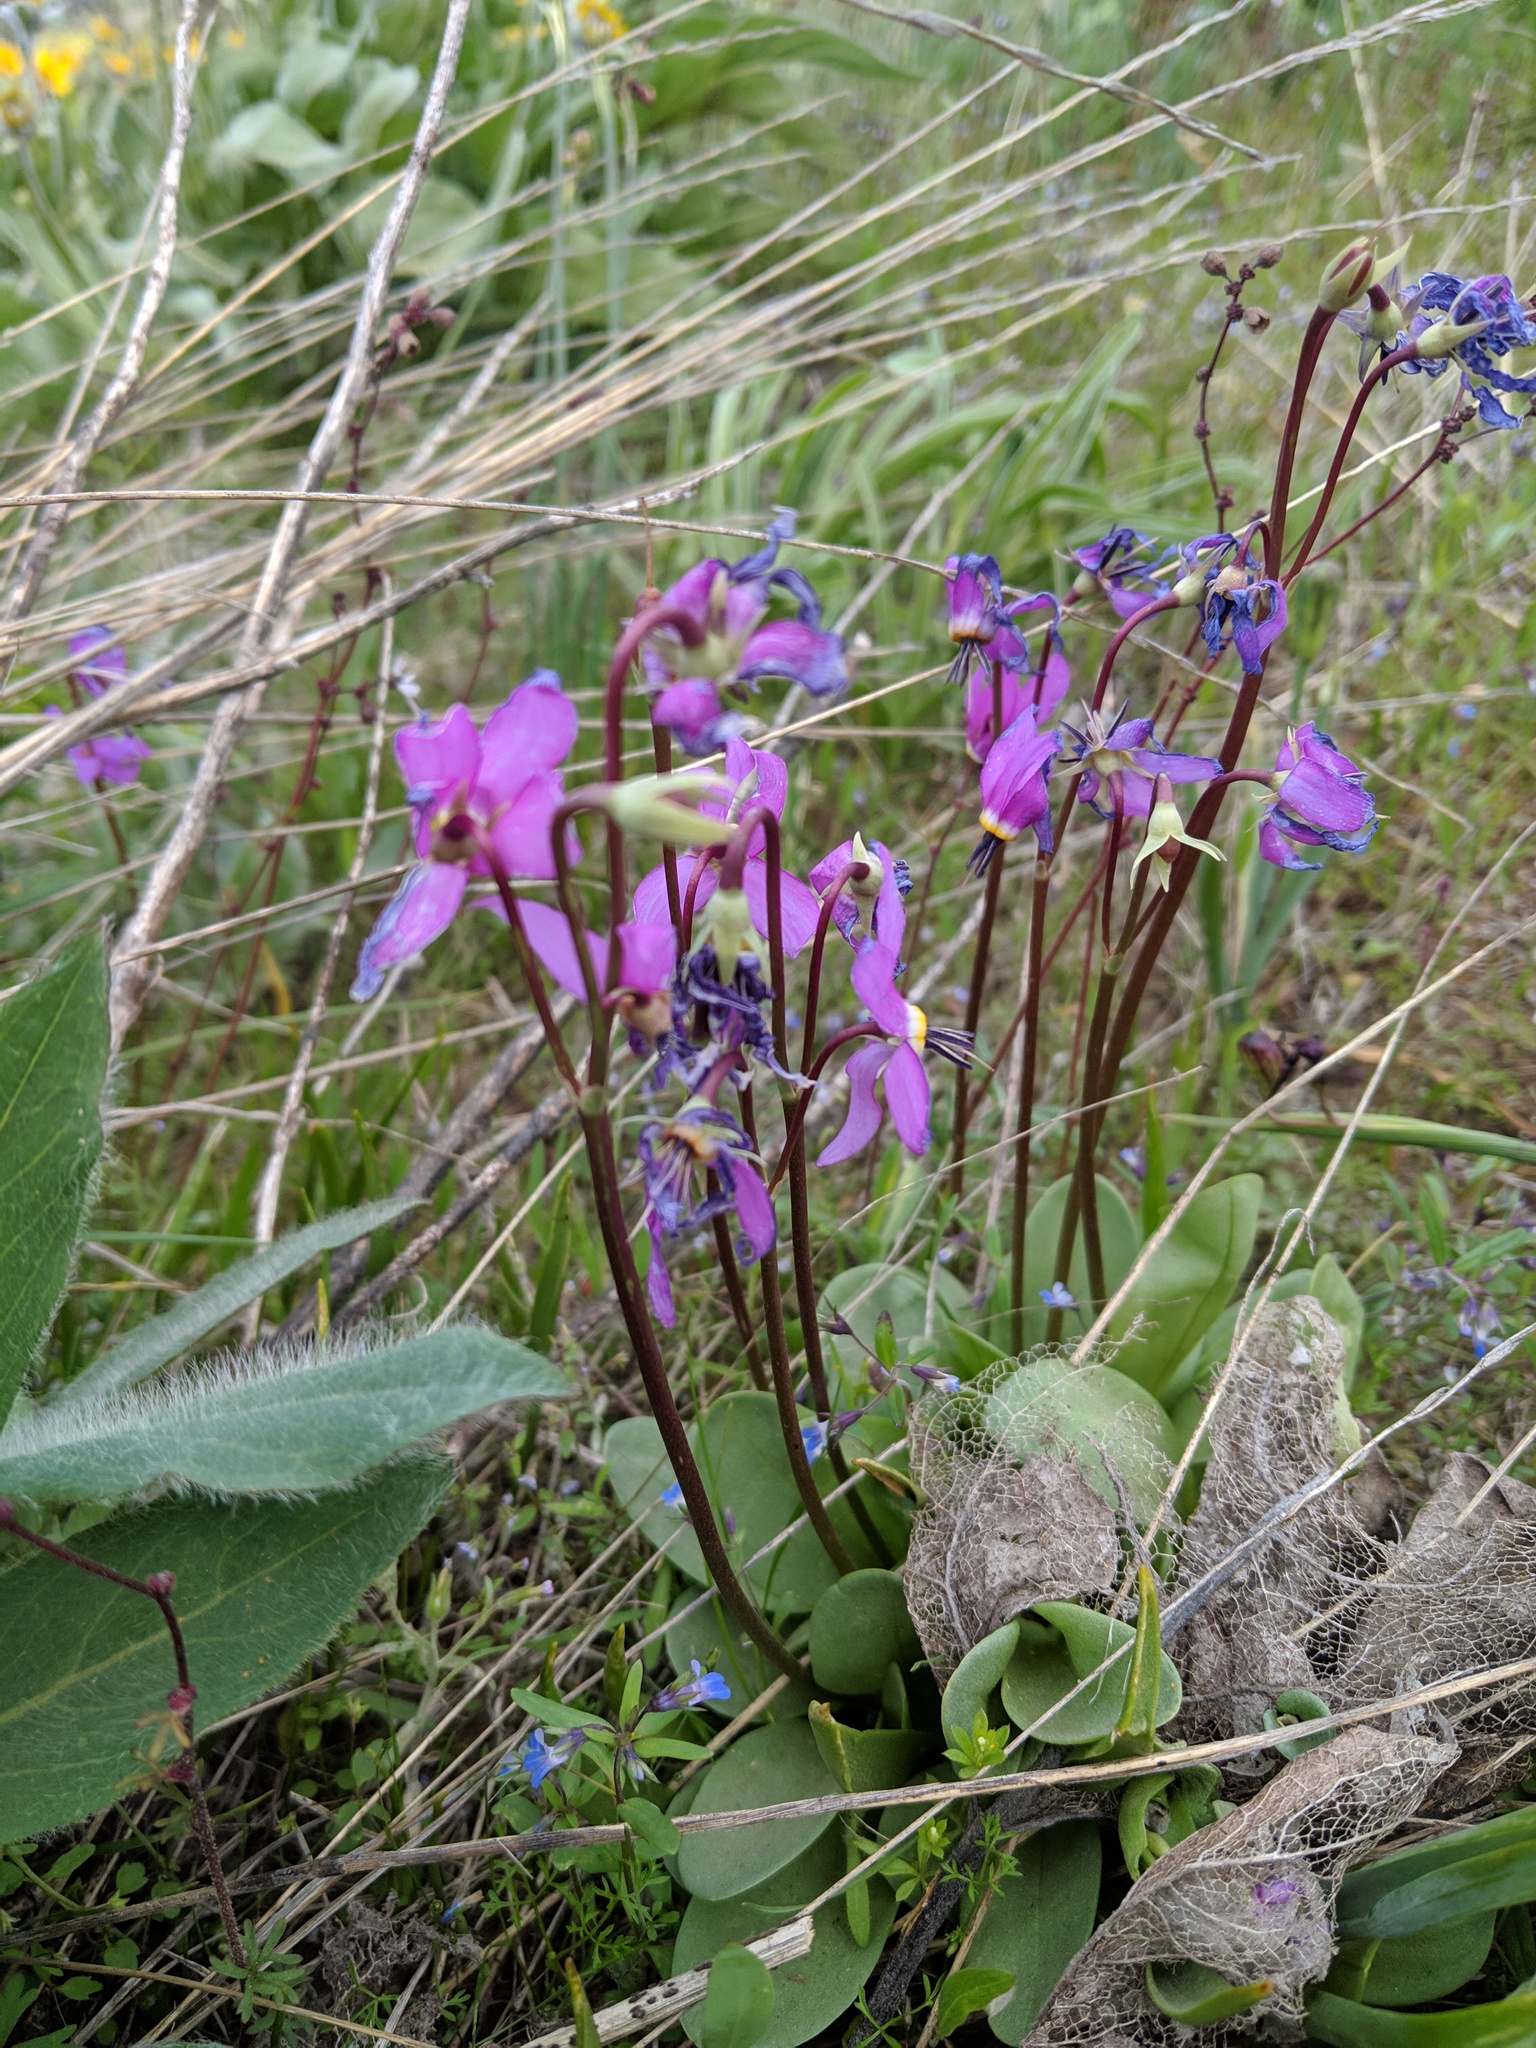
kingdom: Plantae
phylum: Tracheophyta
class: Magnoliopsida
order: Ericales
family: Primulaceae
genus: Dodecatheon
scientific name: Dodecatheon conjugens
